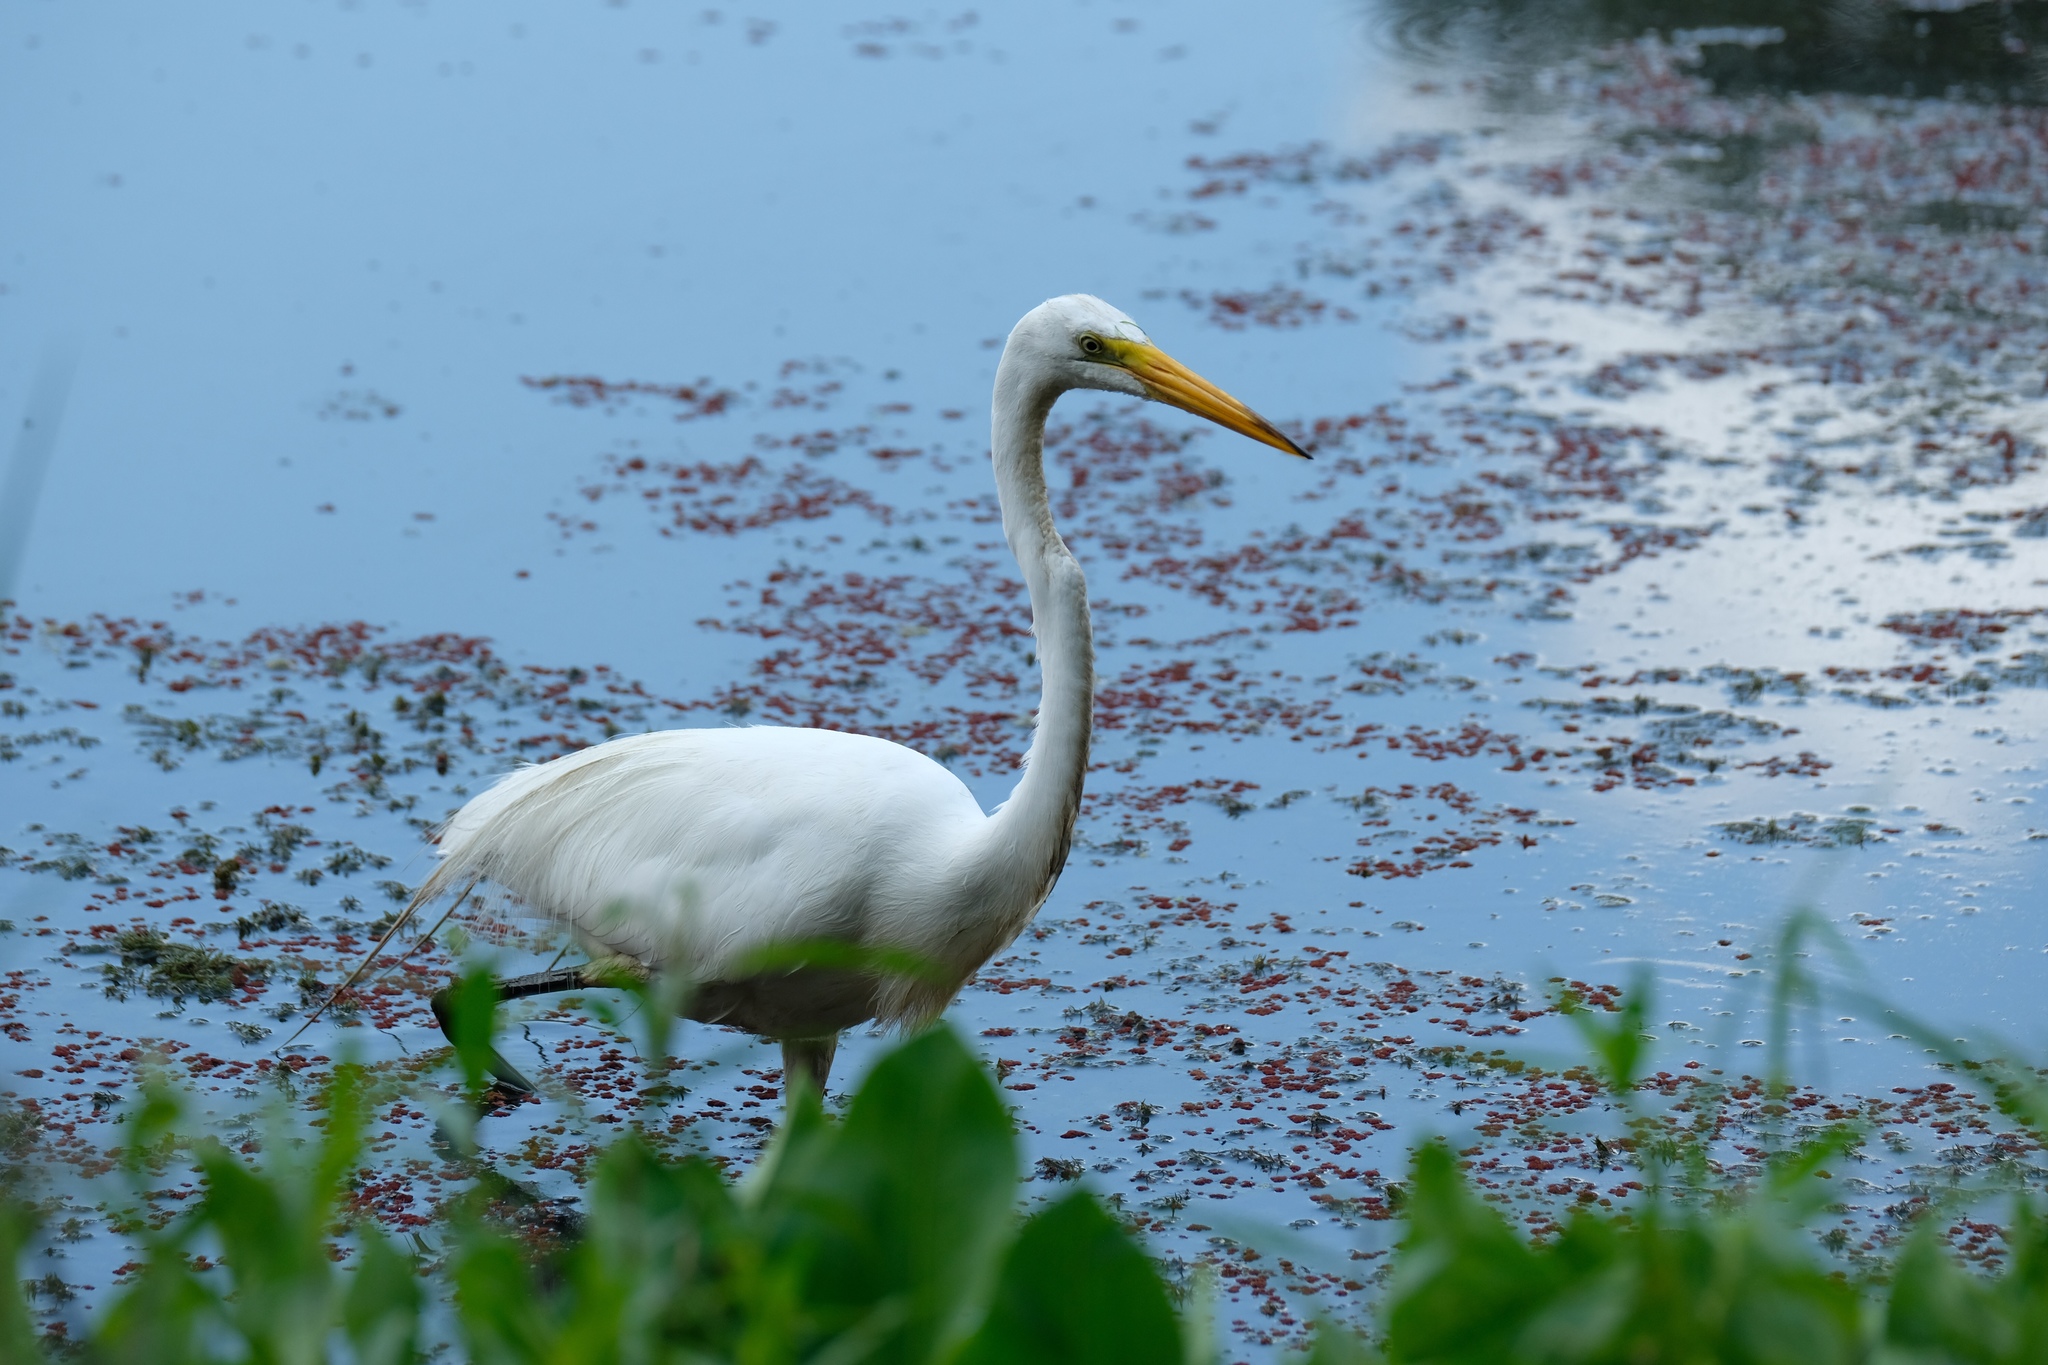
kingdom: Animalia
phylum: Chordata
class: Aves
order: Pelecaniformes
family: Ardeidae
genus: Ardea
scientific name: Ardea alba
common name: Great egret
